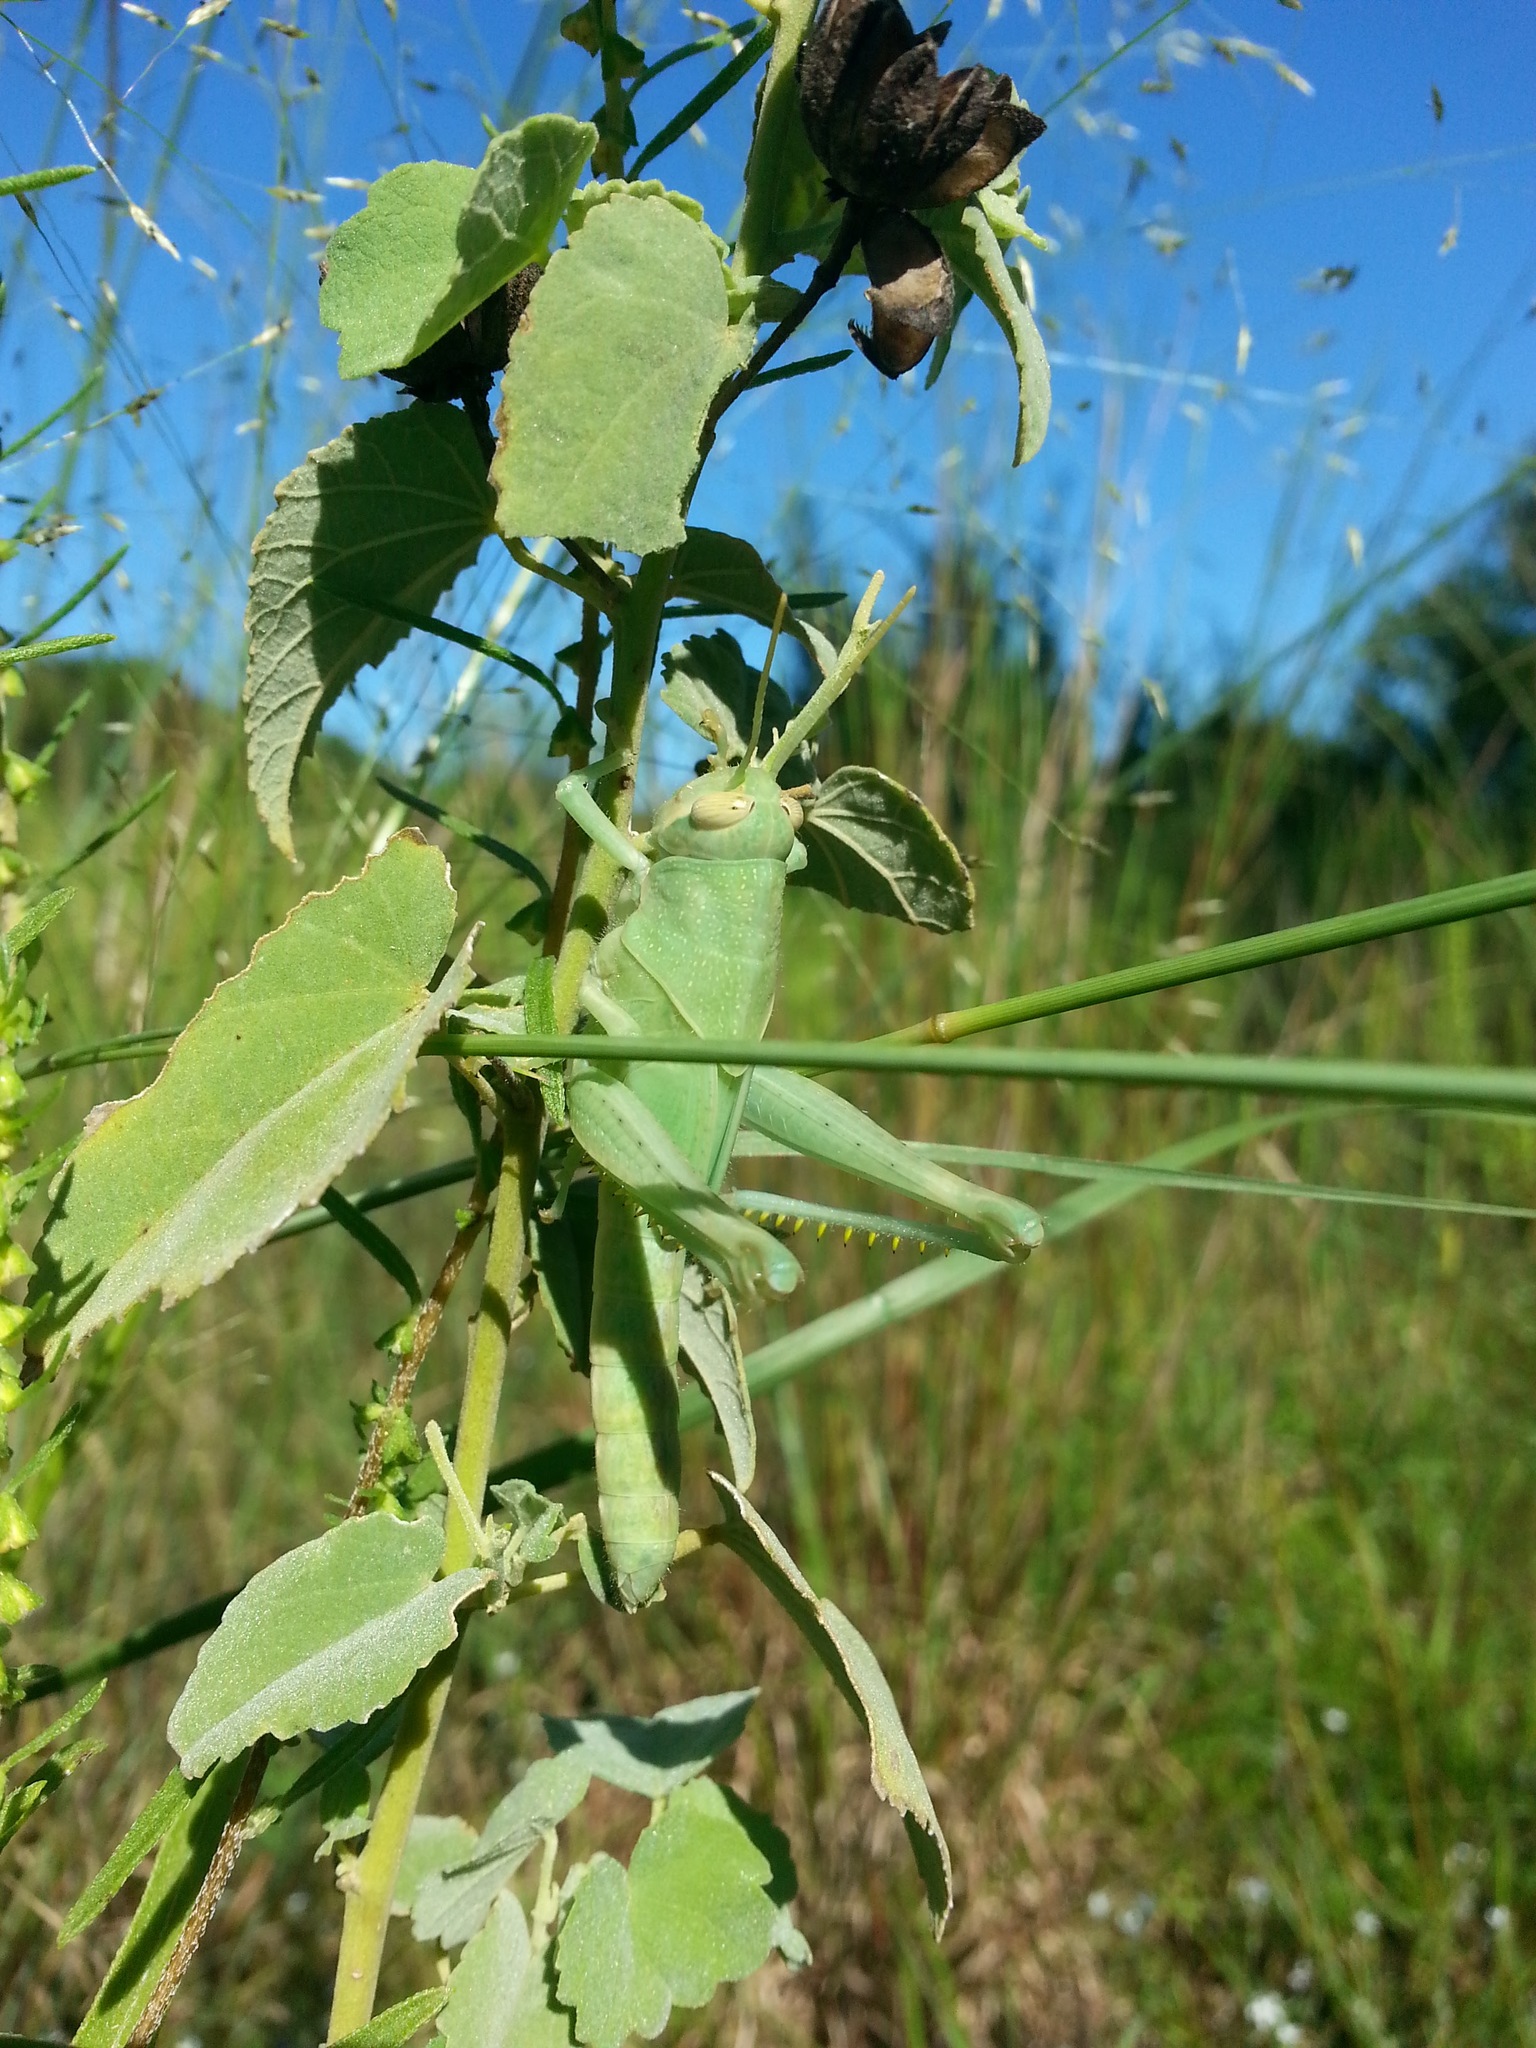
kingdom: Animalia
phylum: Arthropoda
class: Insecta
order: Orthoptera
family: Acrididae
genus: Schistocerca
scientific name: Schistocerca nitens
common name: Vagrant grasshopper
